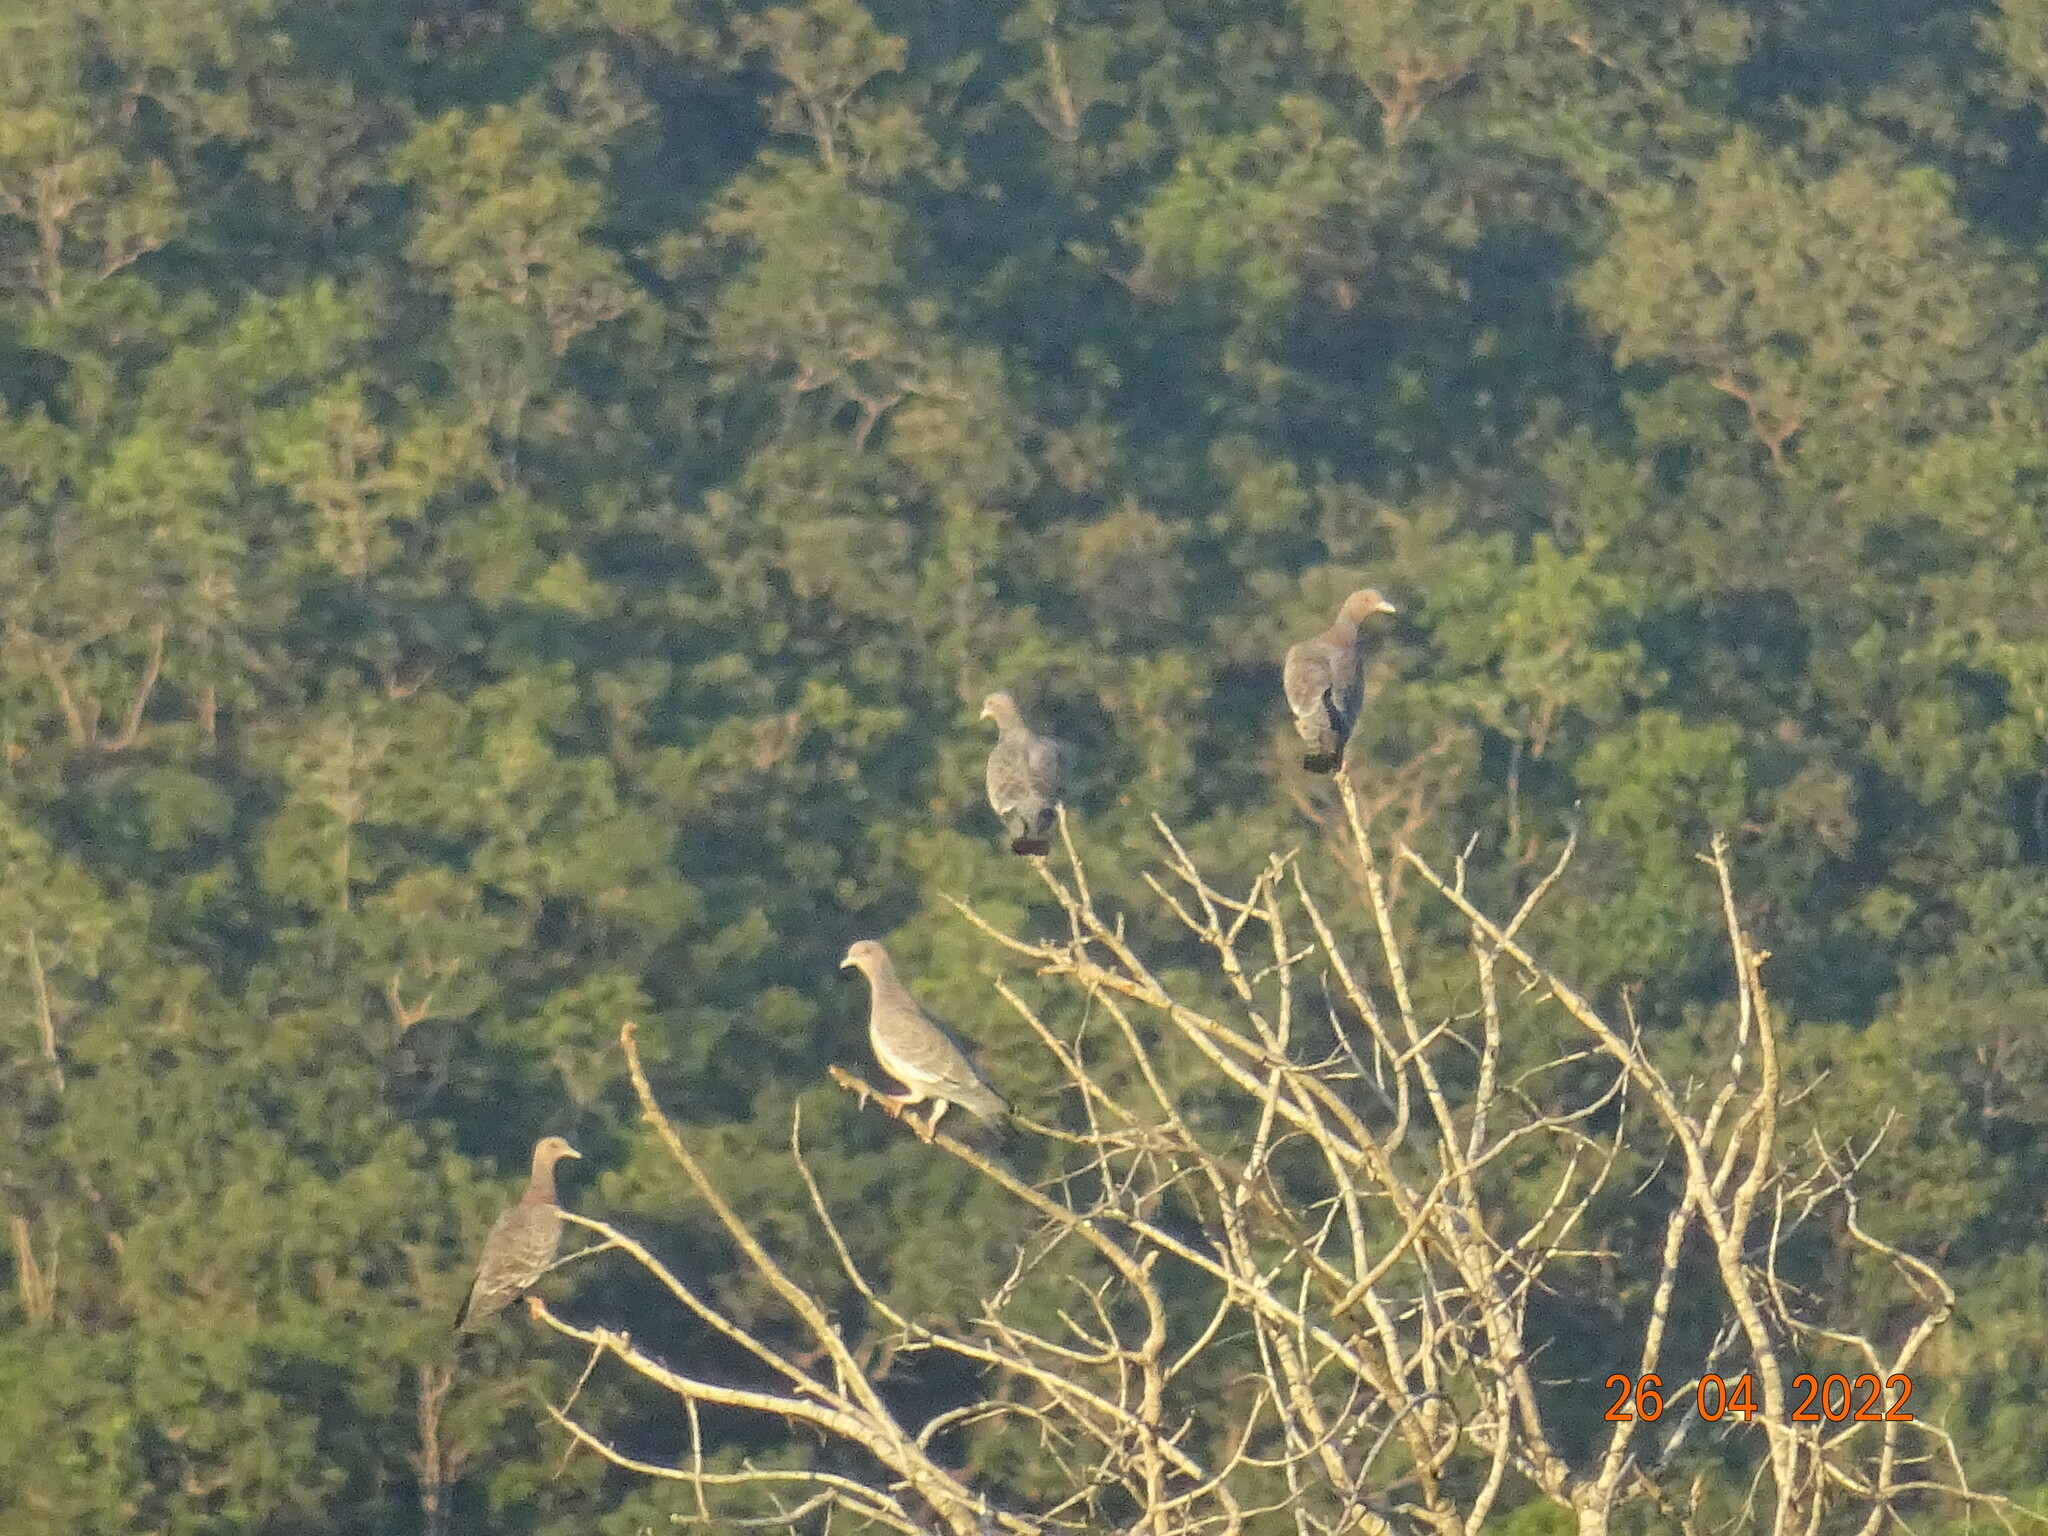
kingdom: Animalia
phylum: Chordata
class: Aves
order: Columbiformes
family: Columbidae
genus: Patagioenas
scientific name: Patagioenas picazuro
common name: Picazuro pigeon
